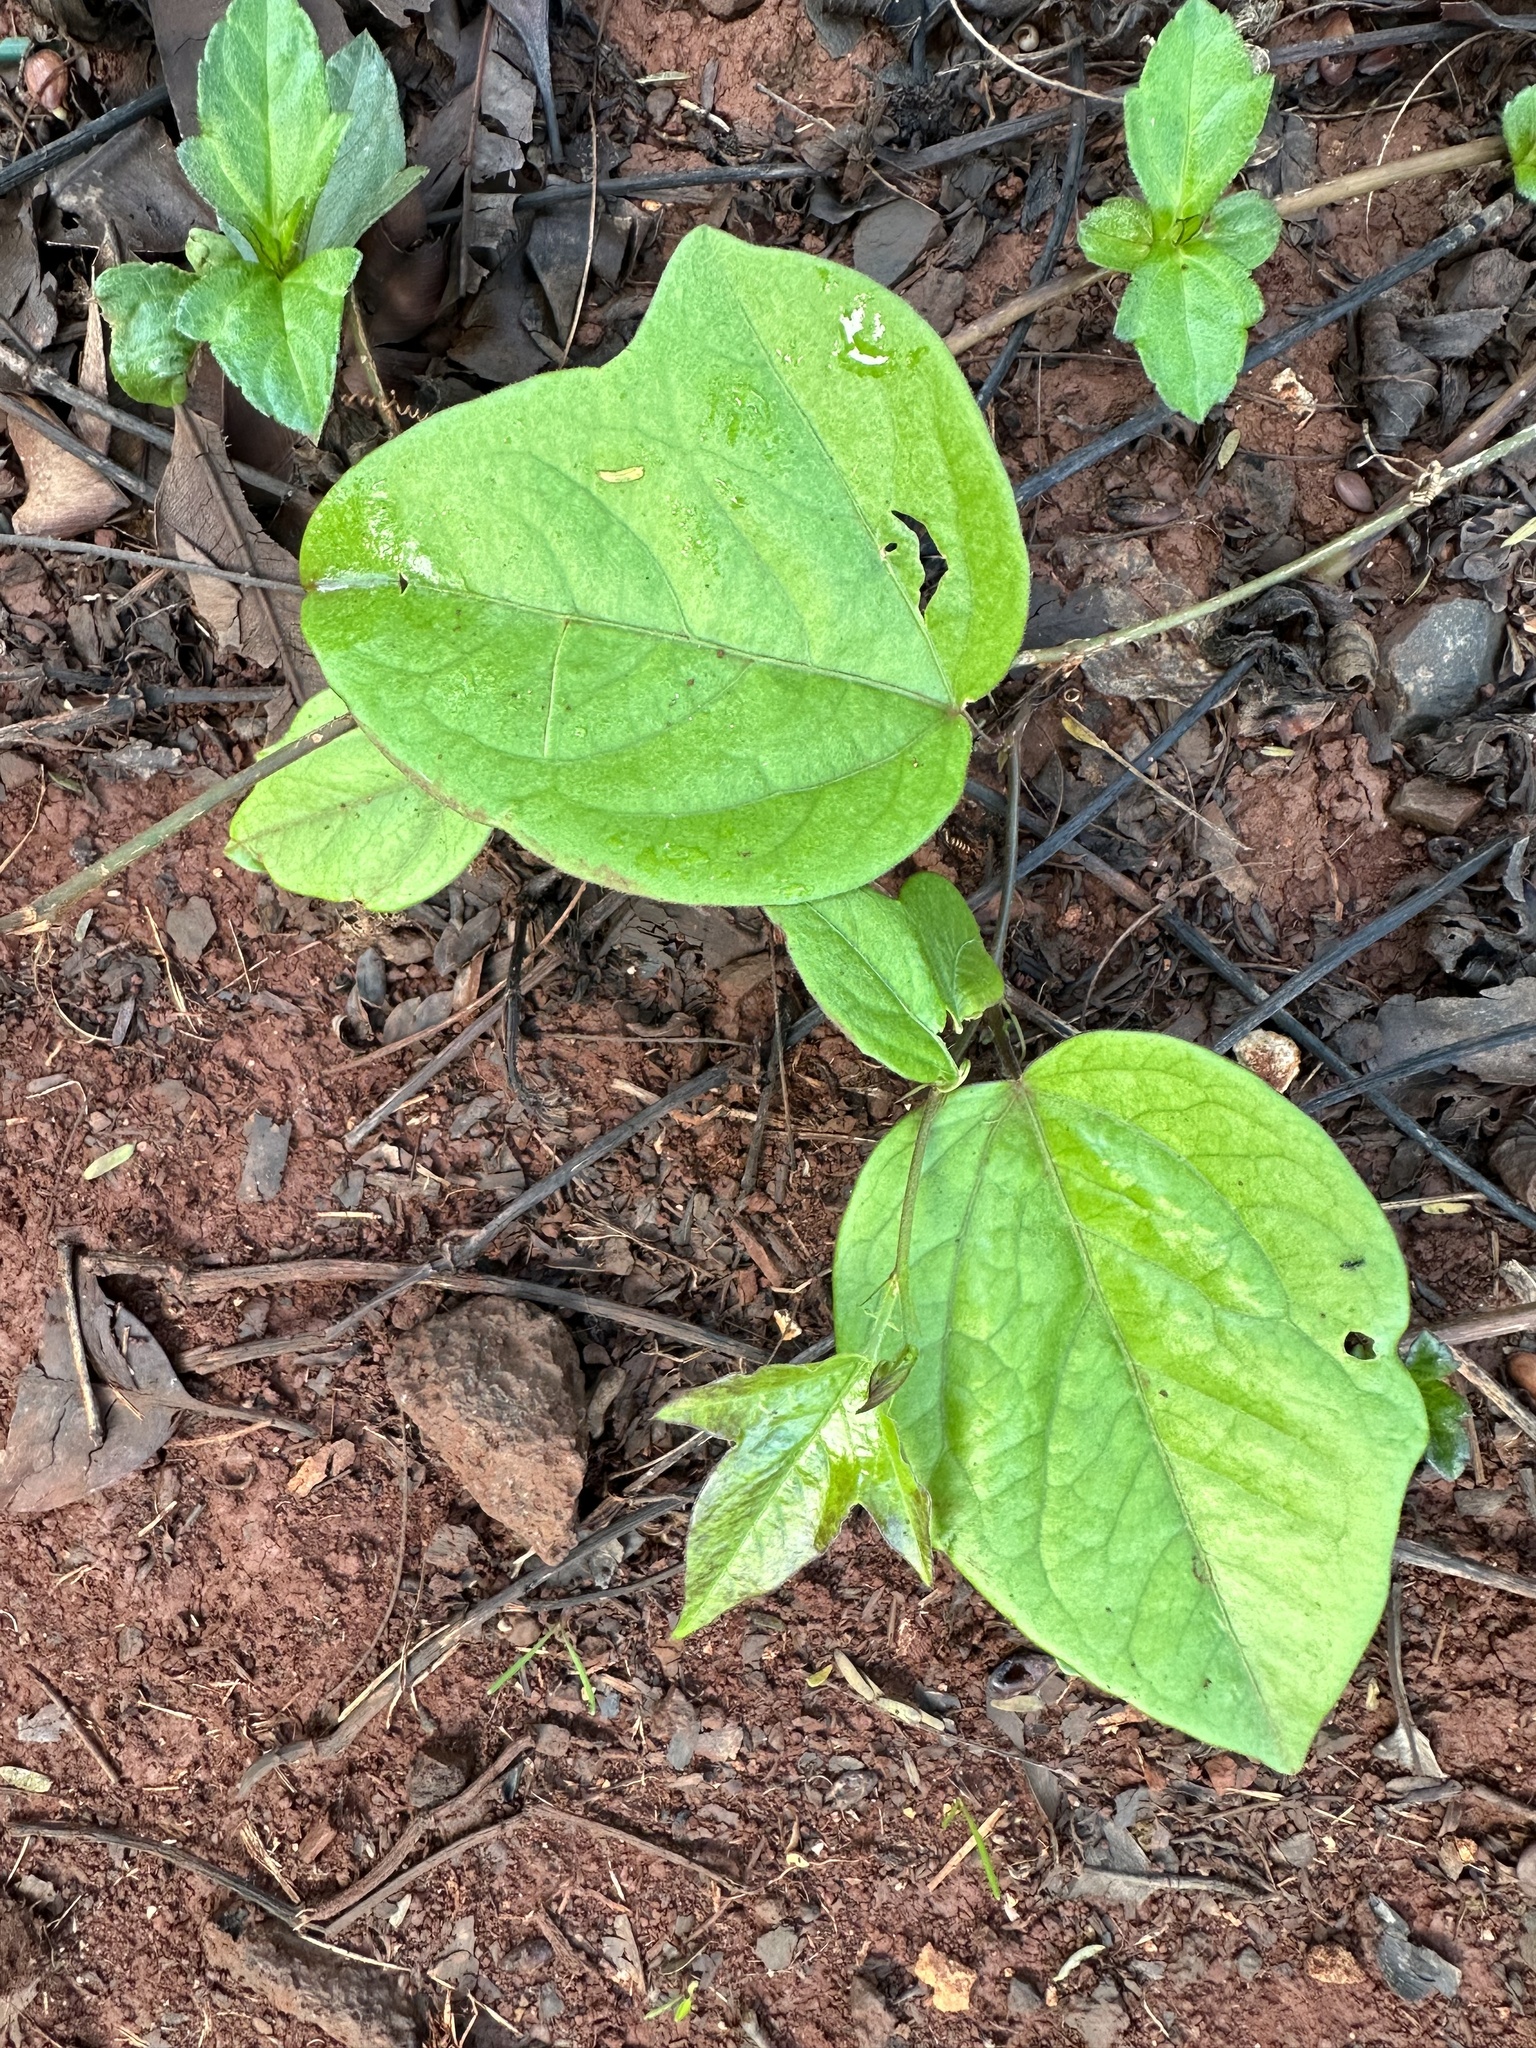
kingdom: Plantae
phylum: Tracheophyta
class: Magnoliopsida
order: Malpighiales
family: Passifloraceae
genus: Passiflora
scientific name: Passiflora suberosa
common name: Wild passionfruit
